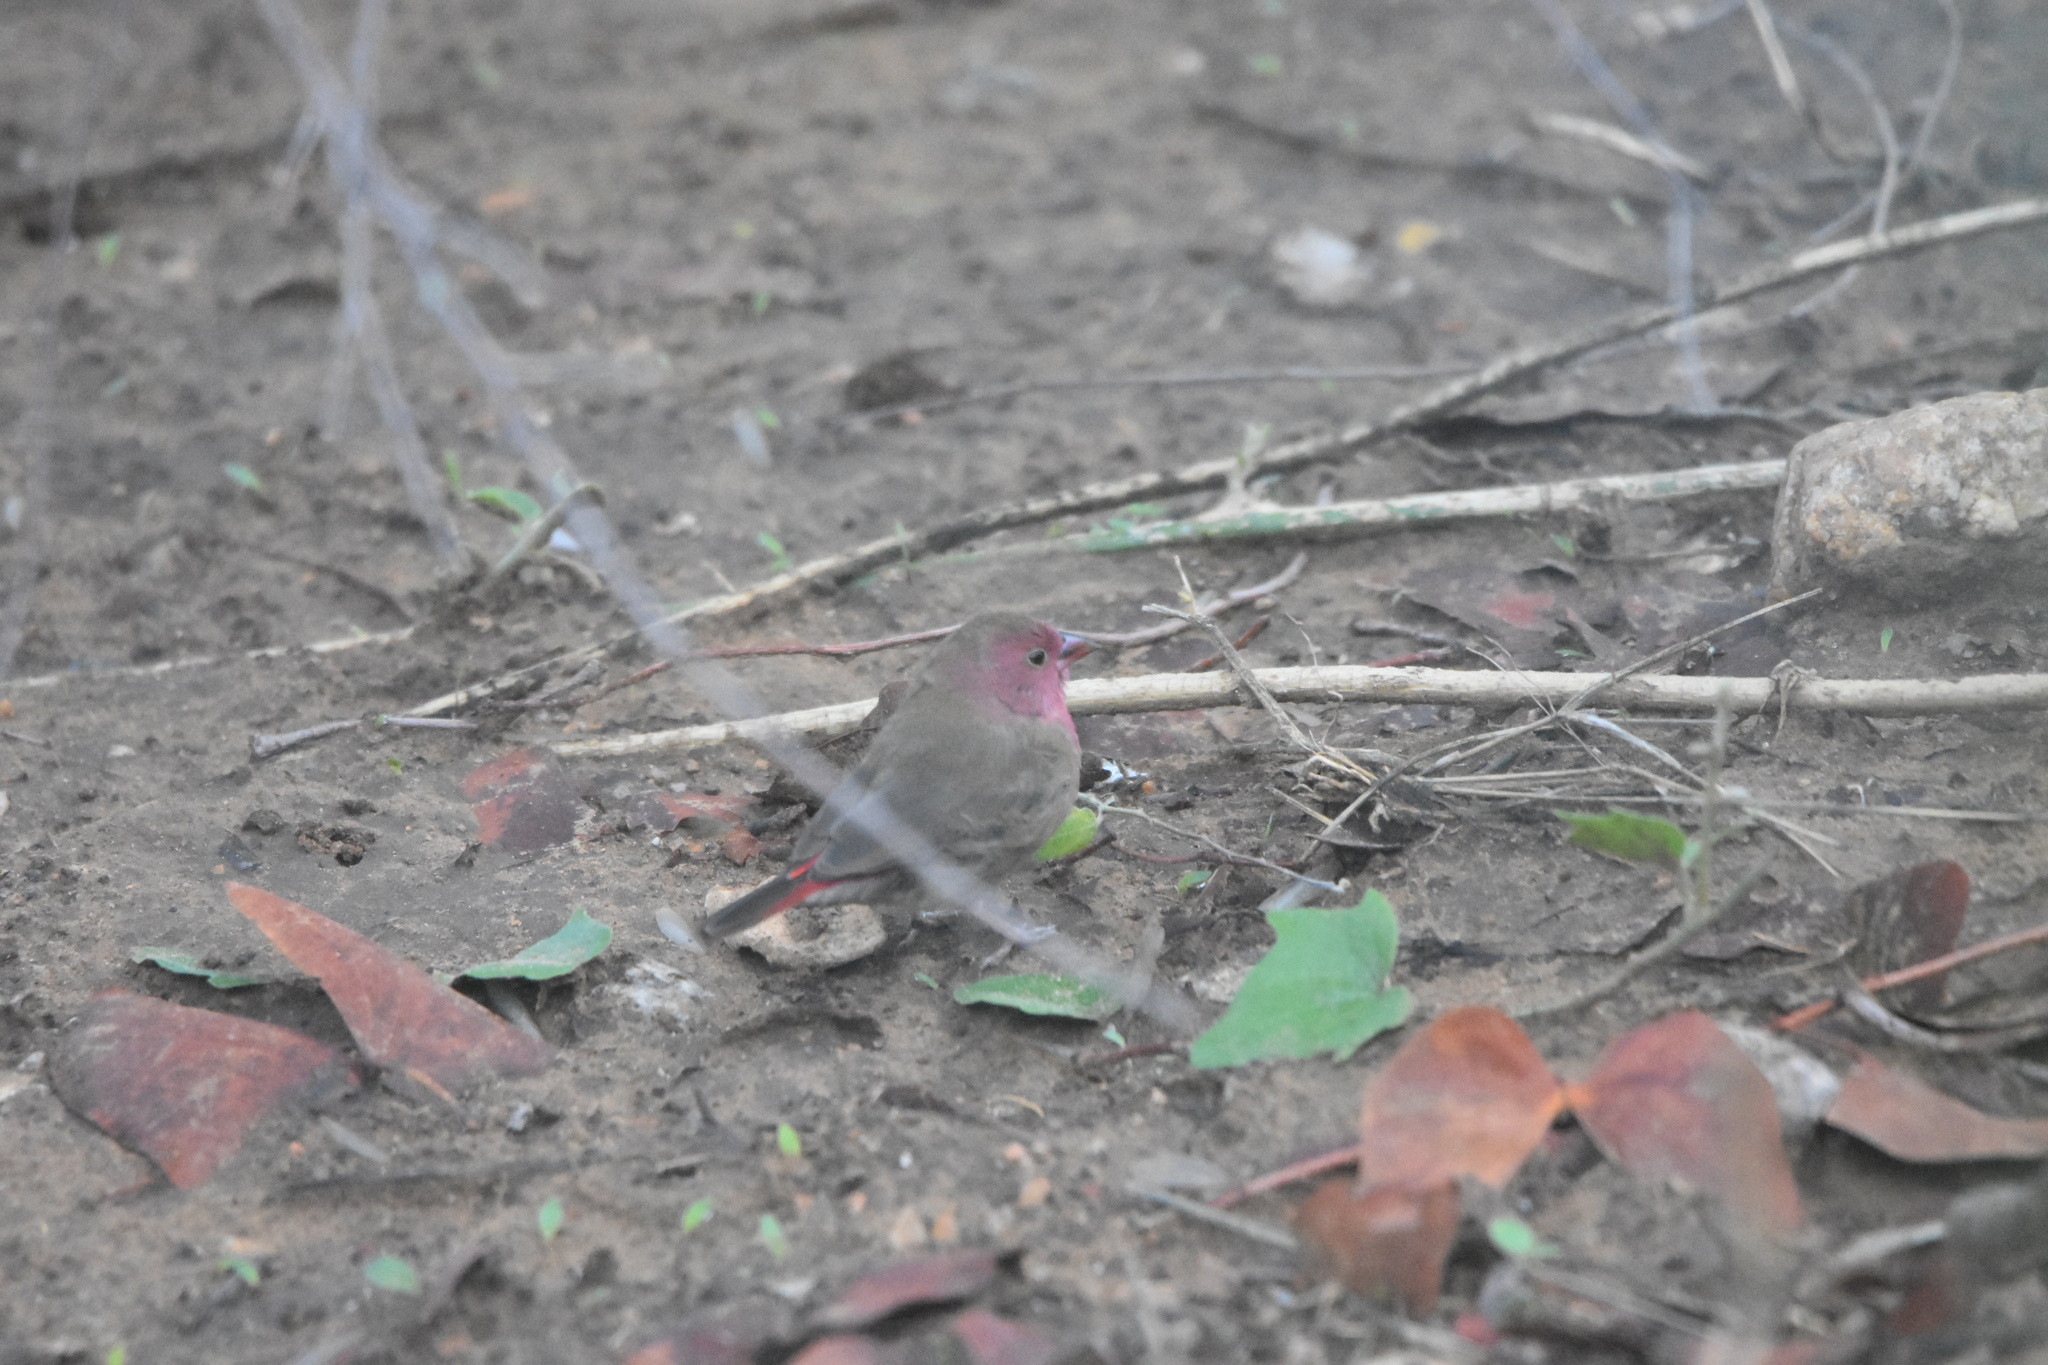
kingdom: Animalia
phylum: Chordata
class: Aves
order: Passeriformes
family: Estrildidae
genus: Lagonosticta
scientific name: Lagonosticta senegala
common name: Red-billed firefinch
